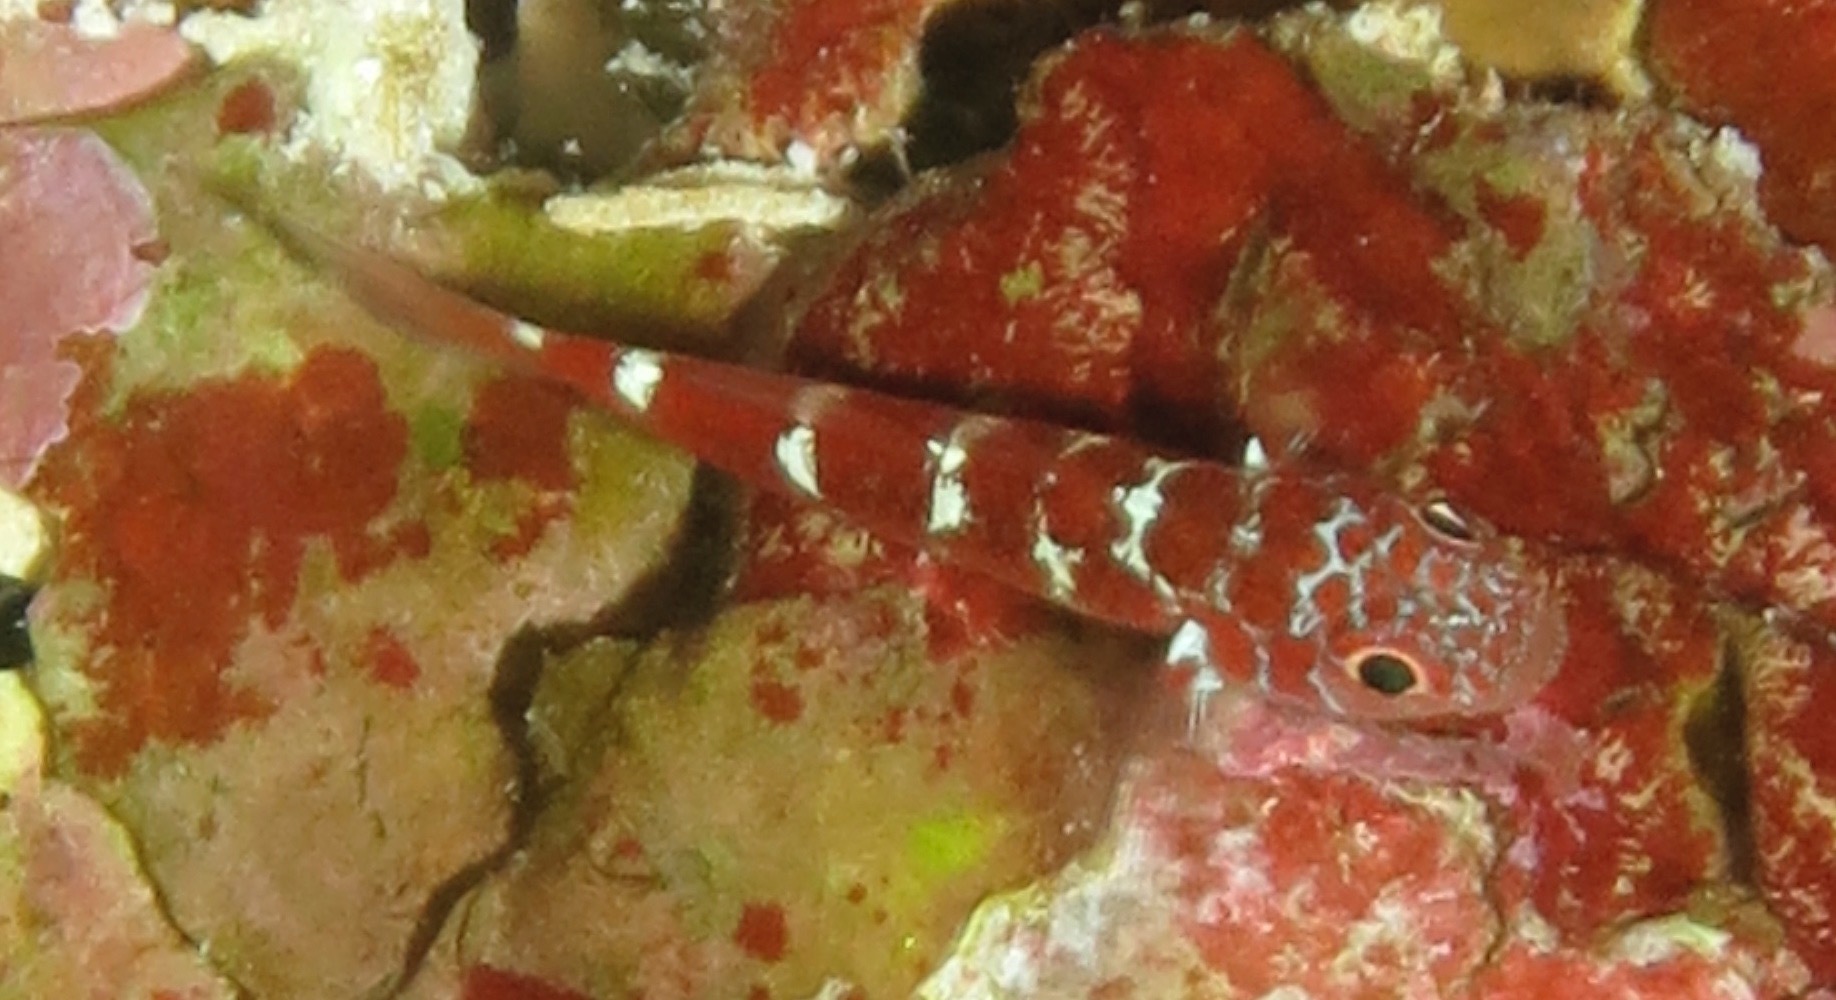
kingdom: Animalia
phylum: Chordata
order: Perciformes
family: Gobiidae
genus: Trimma
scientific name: Trimma caesiura
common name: Caesiura dwarfgoby
